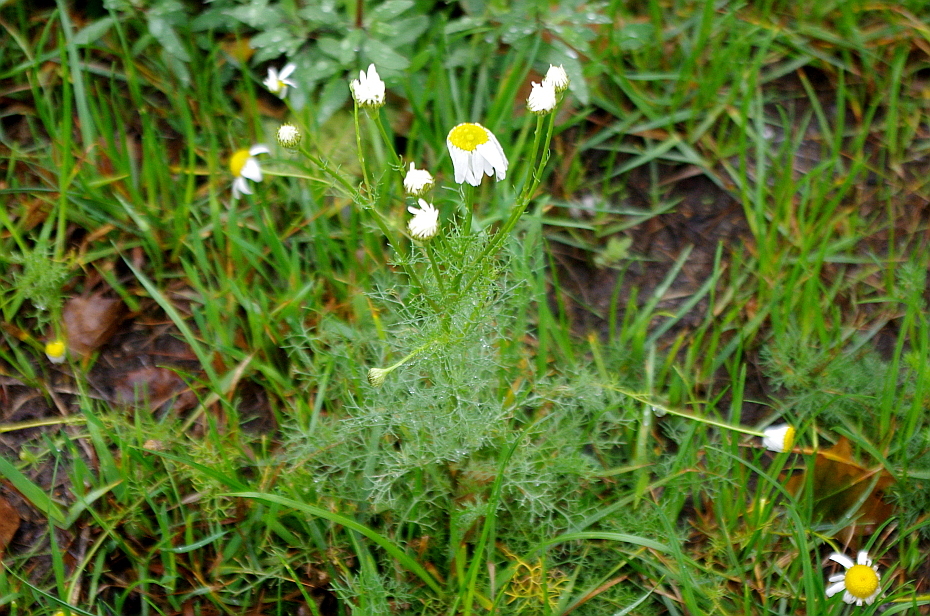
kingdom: Plantae
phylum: Tracheophyta
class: Magnoliopsida
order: Asterales
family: Asteraceae
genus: Tripleurospermum
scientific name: Tripleurospermum inodorum
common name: Scentless mayweed
